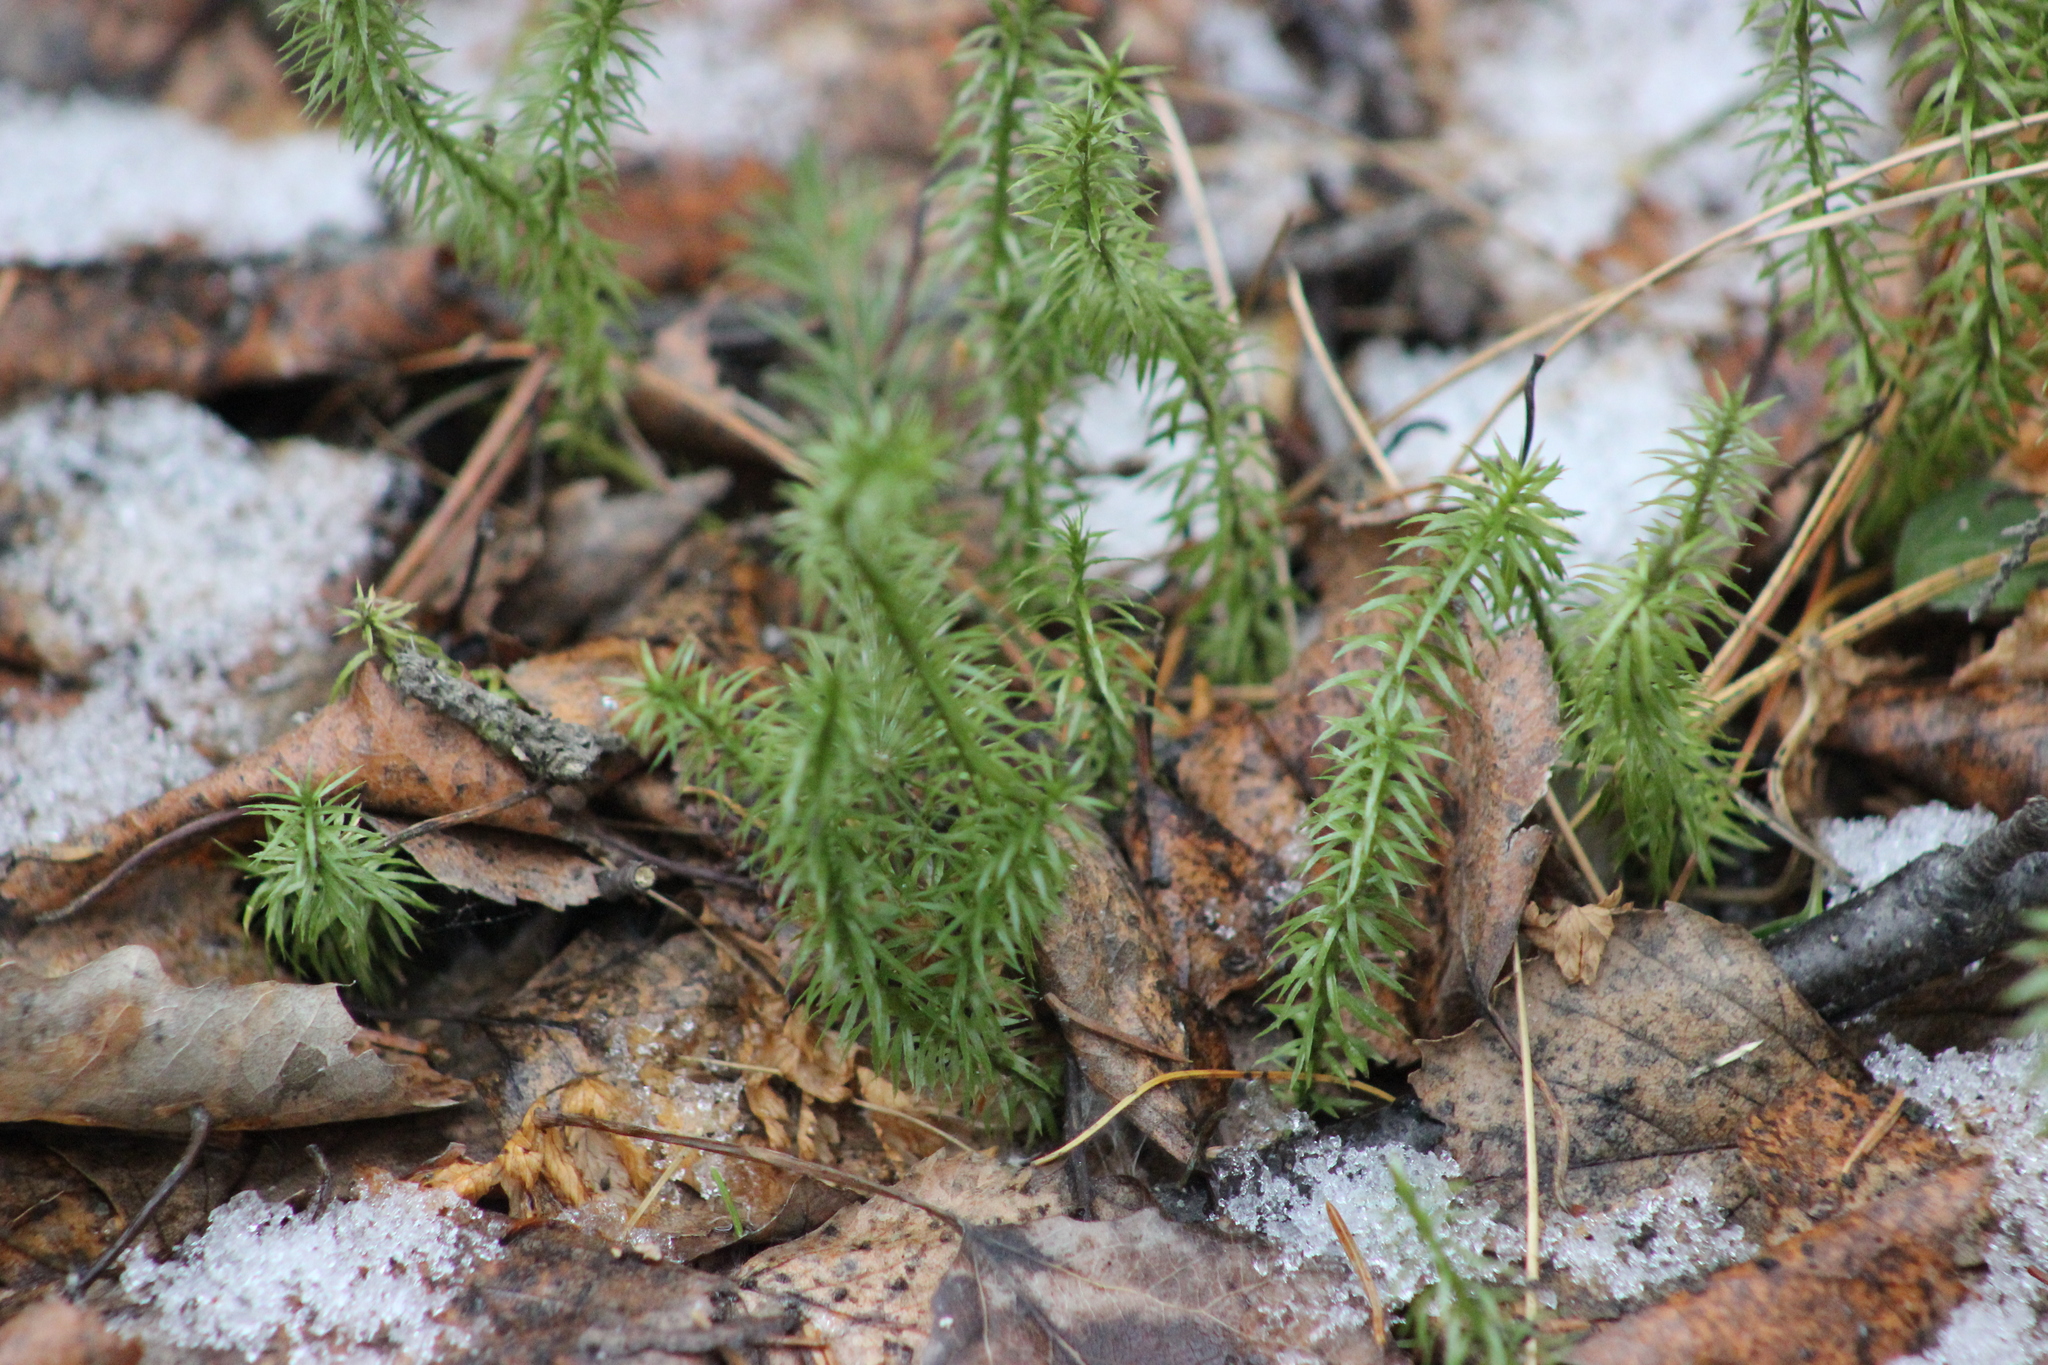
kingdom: Plantae
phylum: Tracheophyta
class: Lycopodiopsida
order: Lycopodiales
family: Lycopodiaceae
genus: Spinulum
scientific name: Spinulum annotinum
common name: Interrupted club-moss
